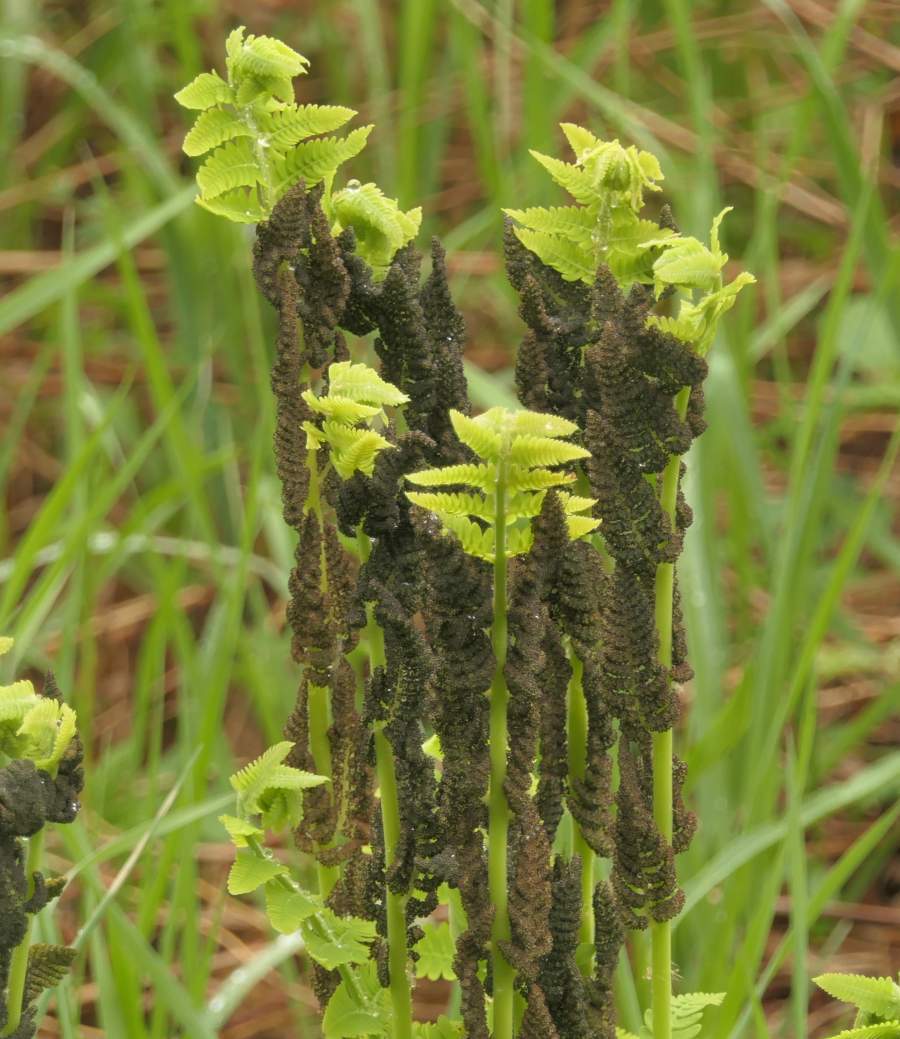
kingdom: Plantae
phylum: Tracheophyta
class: Polypodiopsida
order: Osmundales
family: Osmundaceae
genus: Claytosmunda
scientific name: Claytosmunda claytoniana
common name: Clayton's fern
